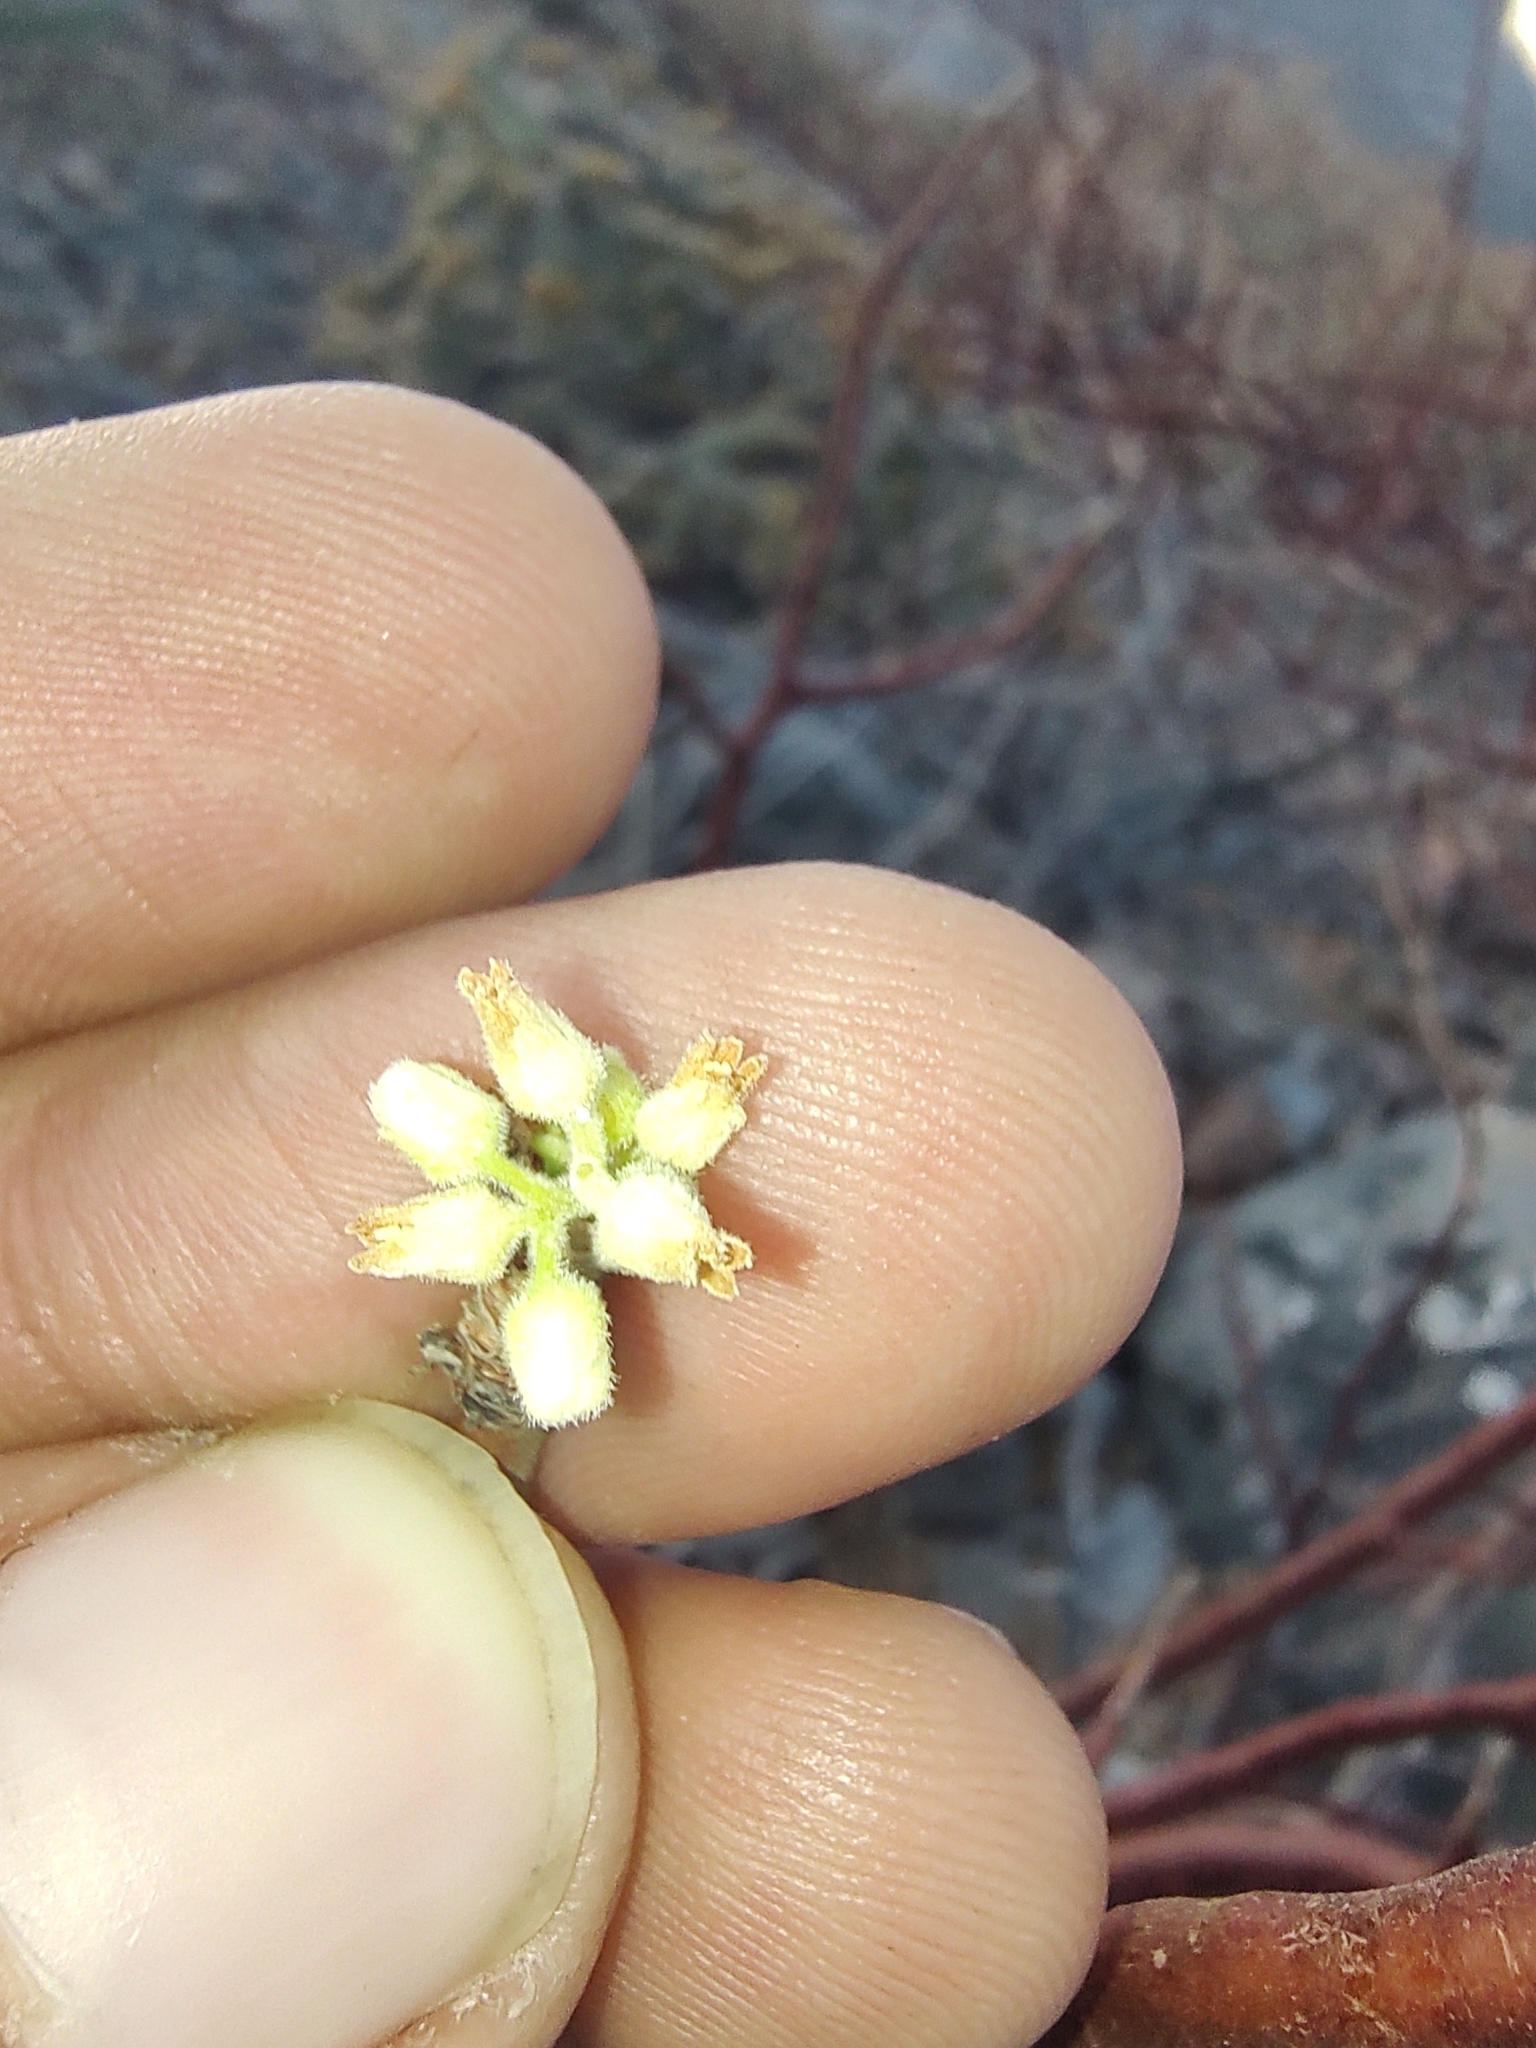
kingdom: Plantae
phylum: Tracheophyta
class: Magnoliopsida
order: Sapindales
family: Burseraceae
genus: Bursera
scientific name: Bursera hindsiana
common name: Red elephant tree
